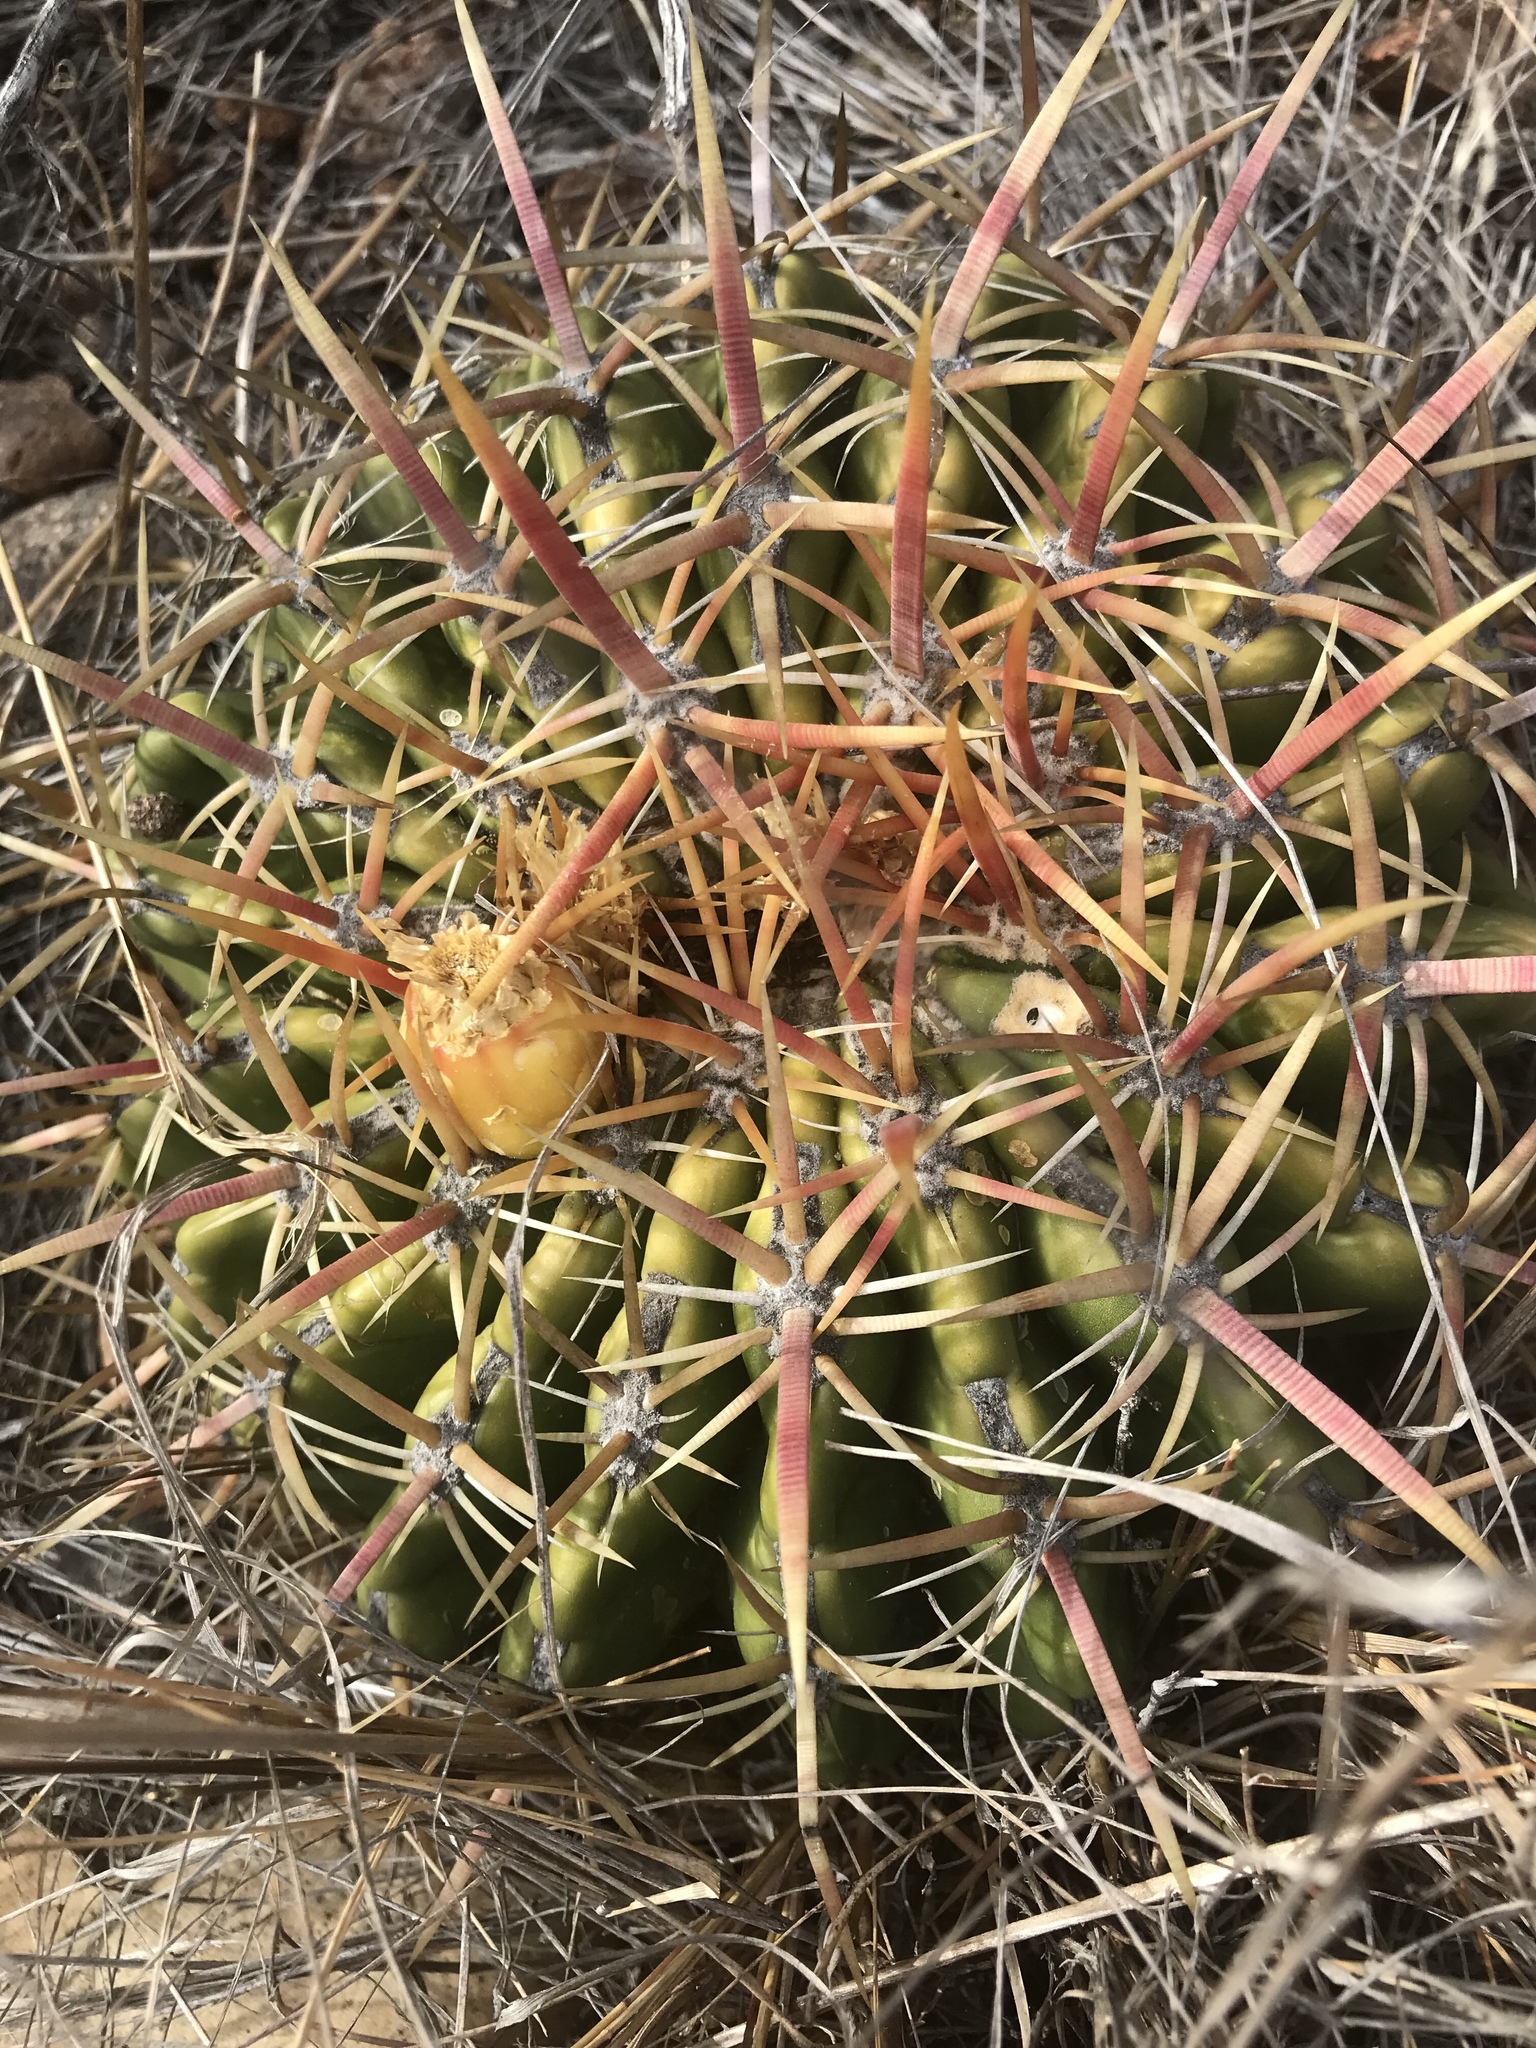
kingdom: Plantae
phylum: Tracheophyta
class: Magnoliopsida
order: Caryophyllales
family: Cactaceae
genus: Ferocactus
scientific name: Ferocactus viridescens
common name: San diego barrel cactus
